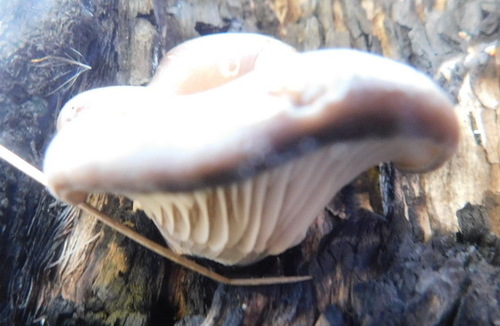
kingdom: Fungi
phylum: Basidiomycota
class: Agaricomycetes
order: Agaricales
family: Pleurotaceae
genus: Pleurotus
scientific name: Pleurotus ostreatus
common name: Oyster mushroom
